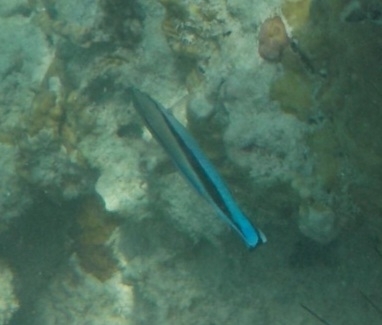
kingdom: Animalia
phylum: Chordata
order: Perciformes
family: Labridae
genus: Labroides
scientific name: Labroides dimidiatus
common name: Blue diesel wrasse
